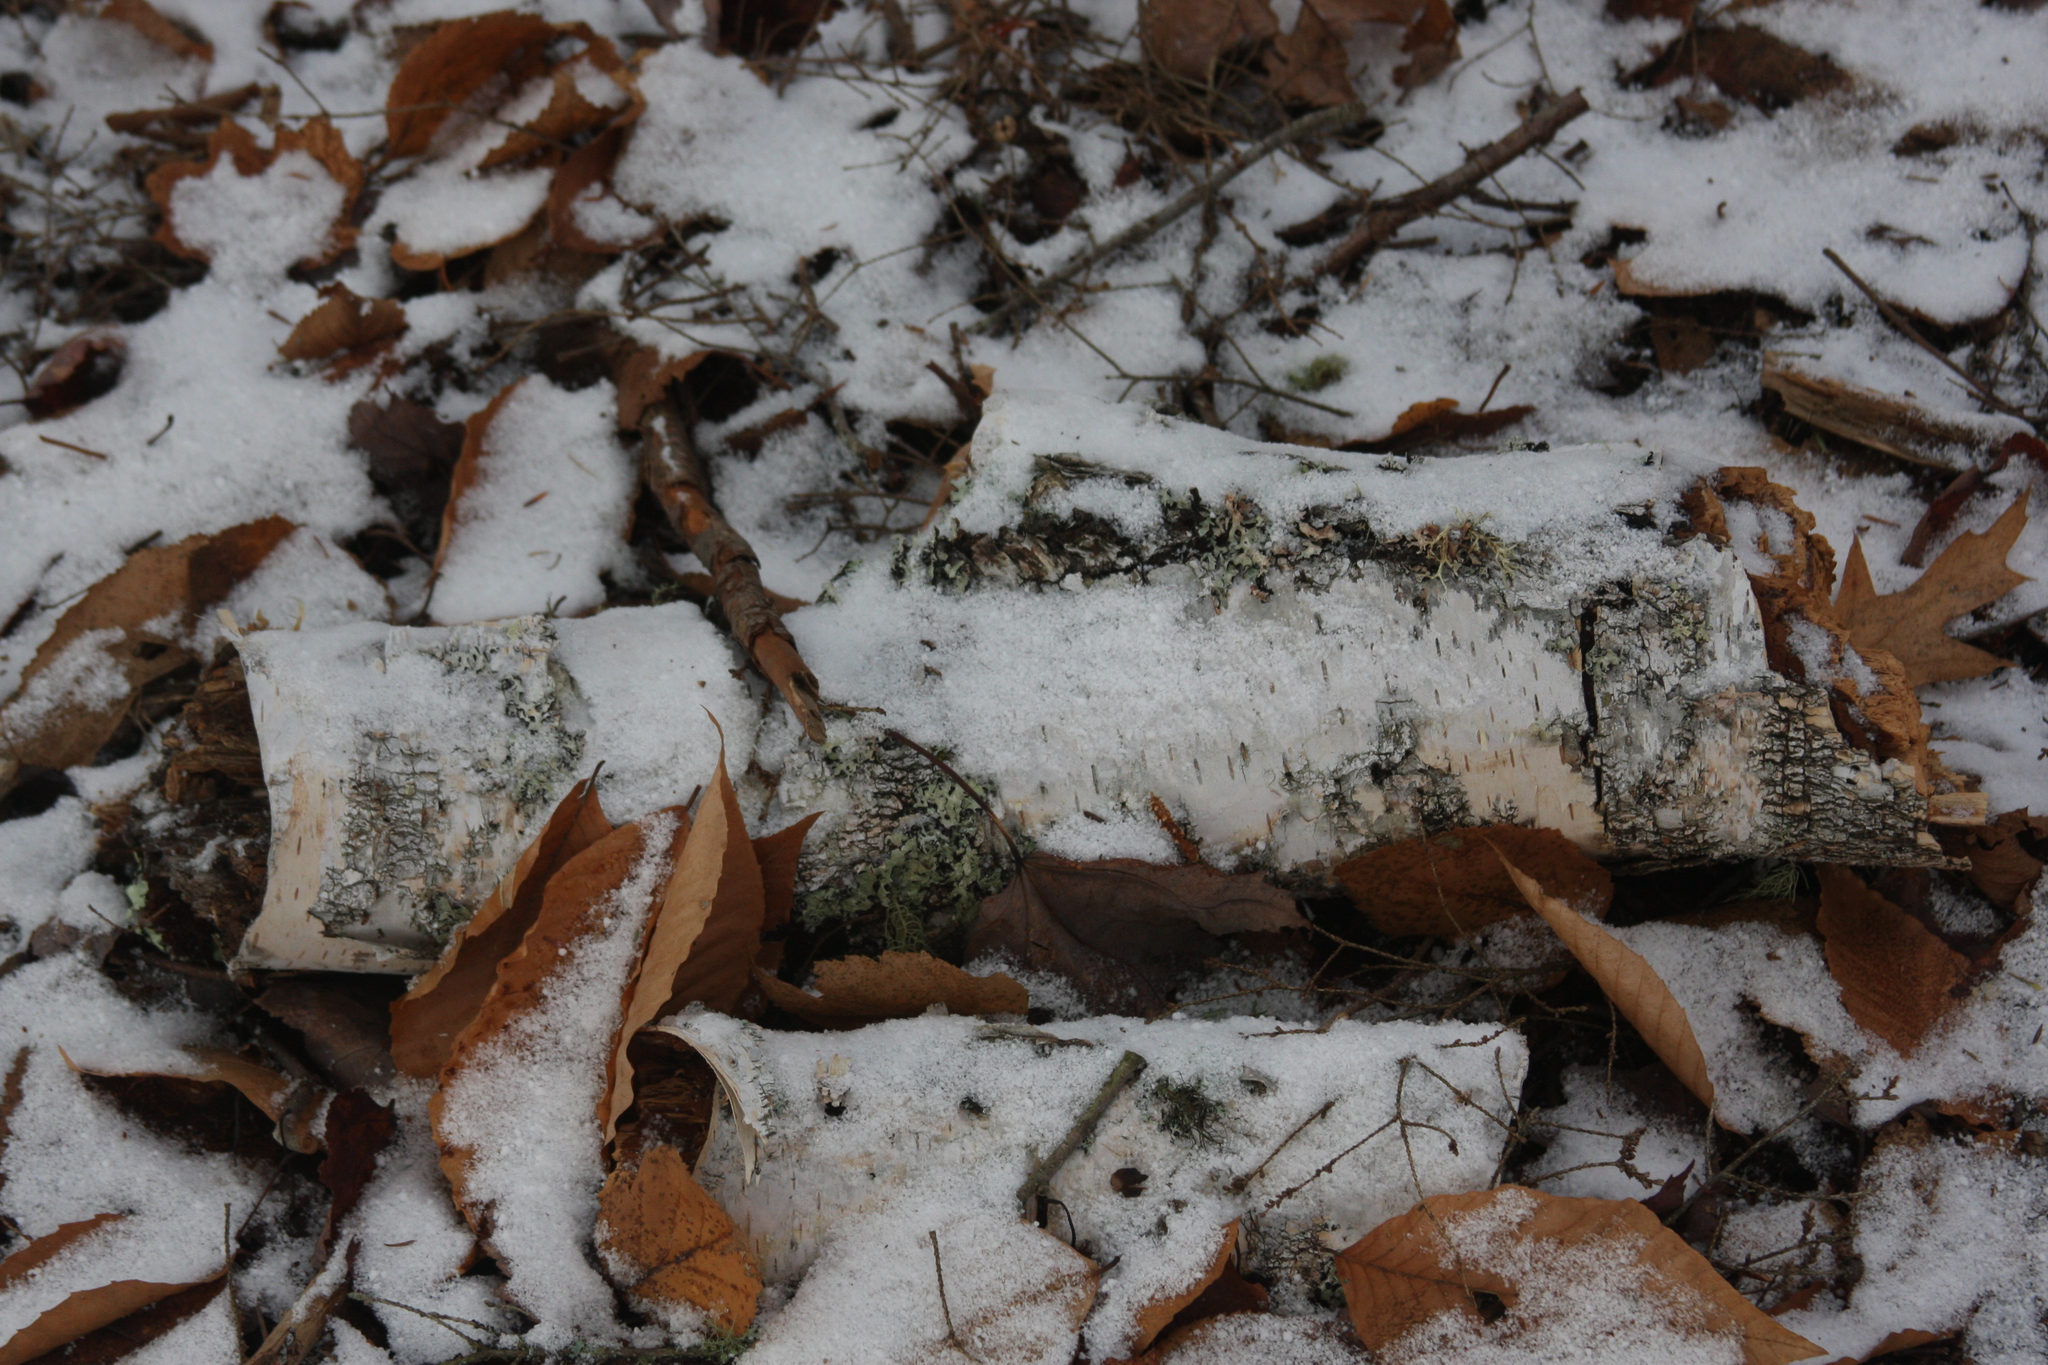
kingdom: Plantae
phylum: Tracheophyta
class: Magnoliopsida
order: Fagales
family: Fagaceae
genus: Fagus
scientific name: Fagus grandifolia
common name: American beech
